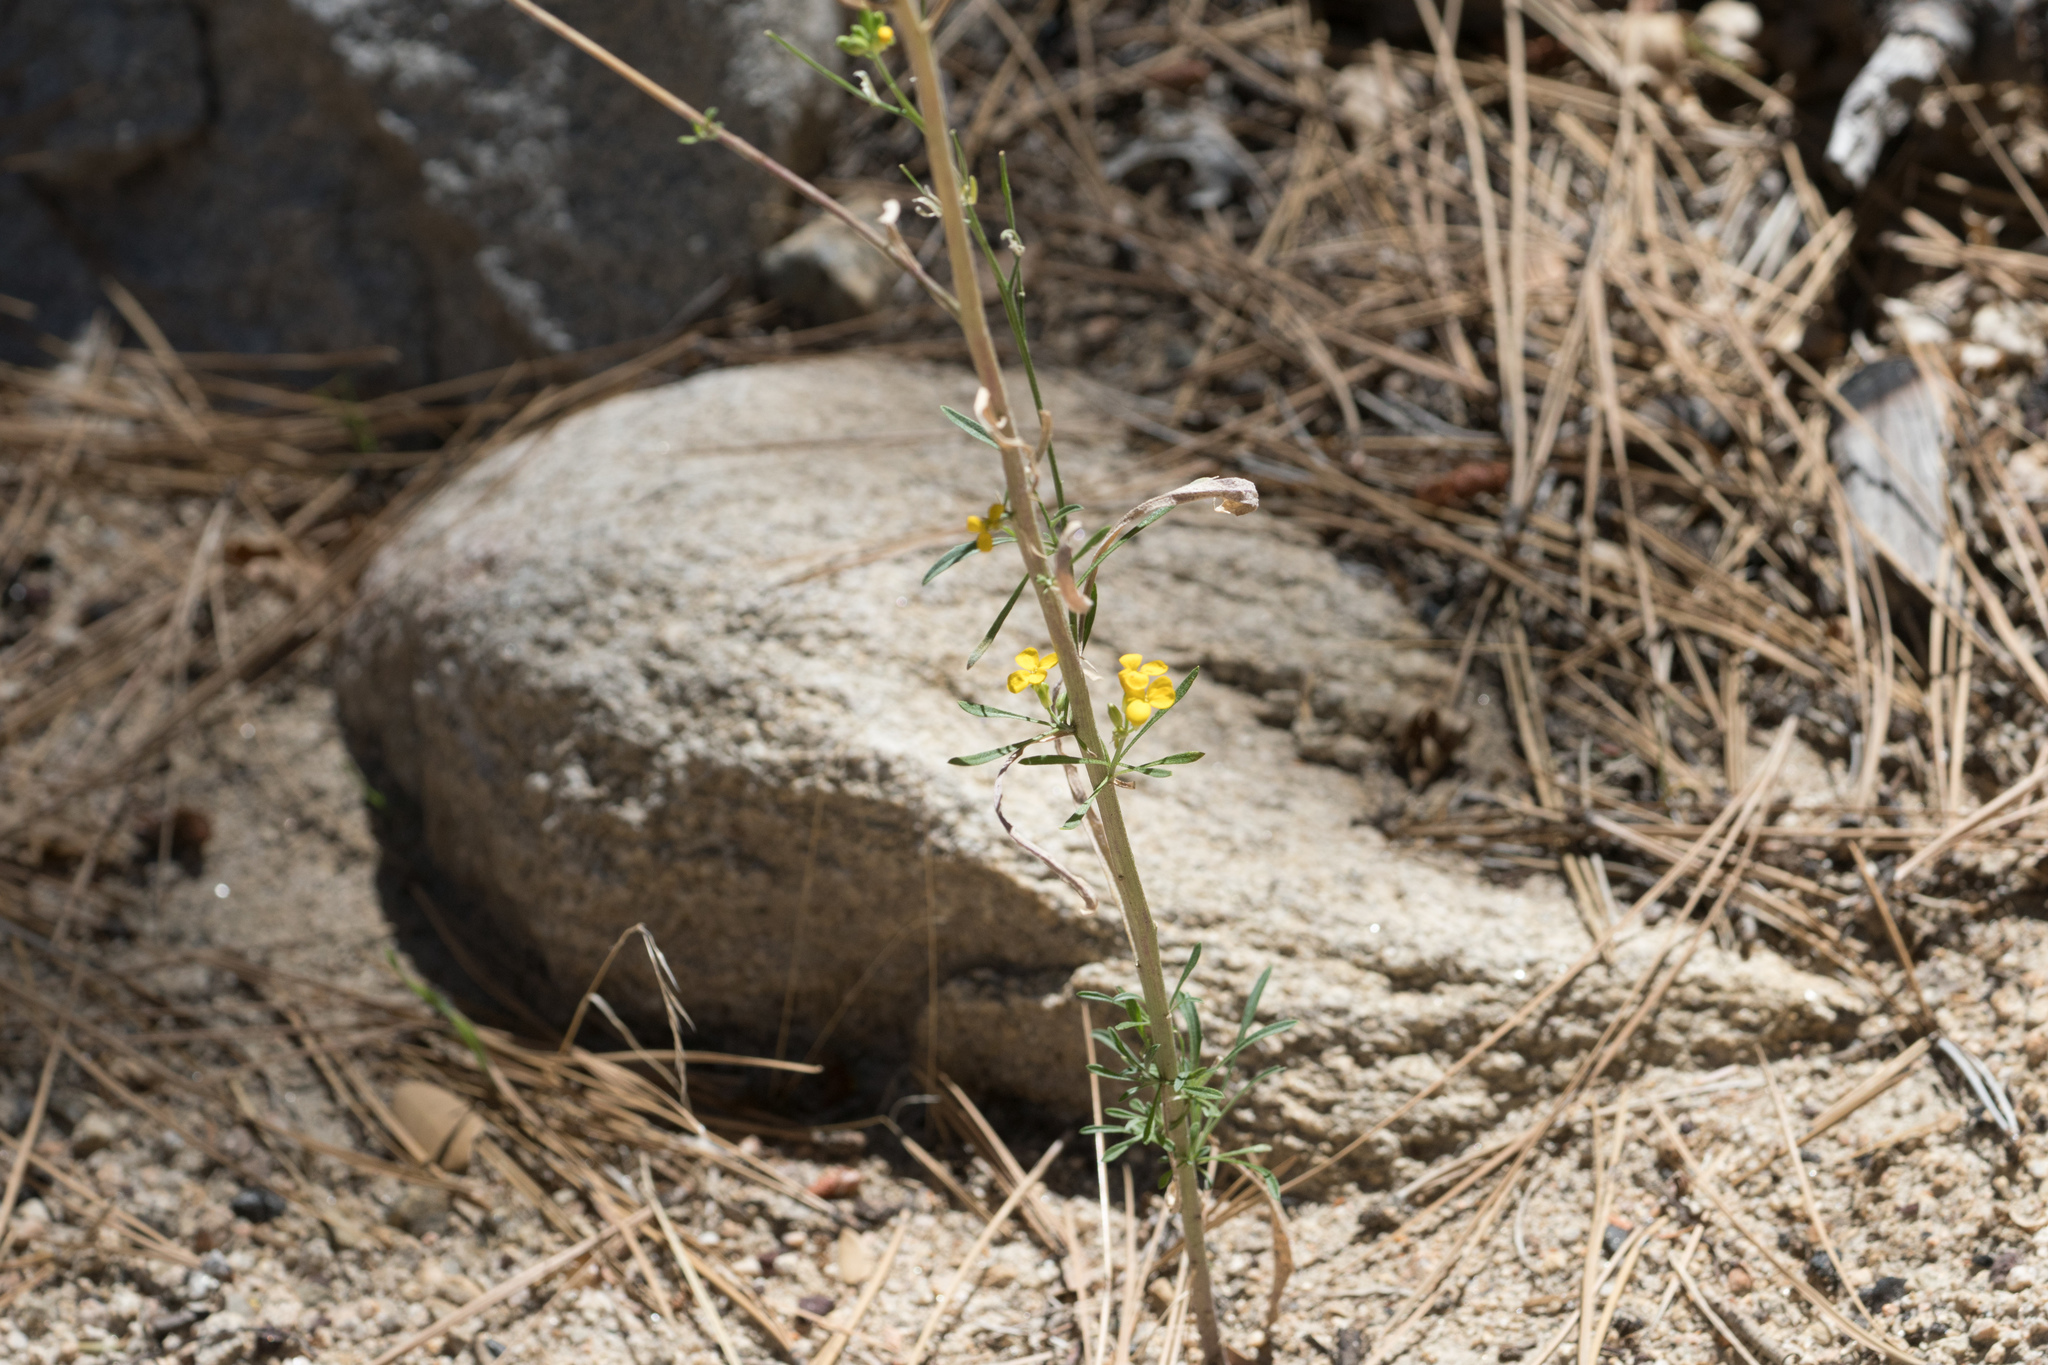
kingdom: Plantae
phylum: Tracheophyta
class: Magnoliopsida
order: Brassicales
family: Brassicaceae
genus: Erysimum
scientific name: Erysimum capitatum
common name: Western wallflower
